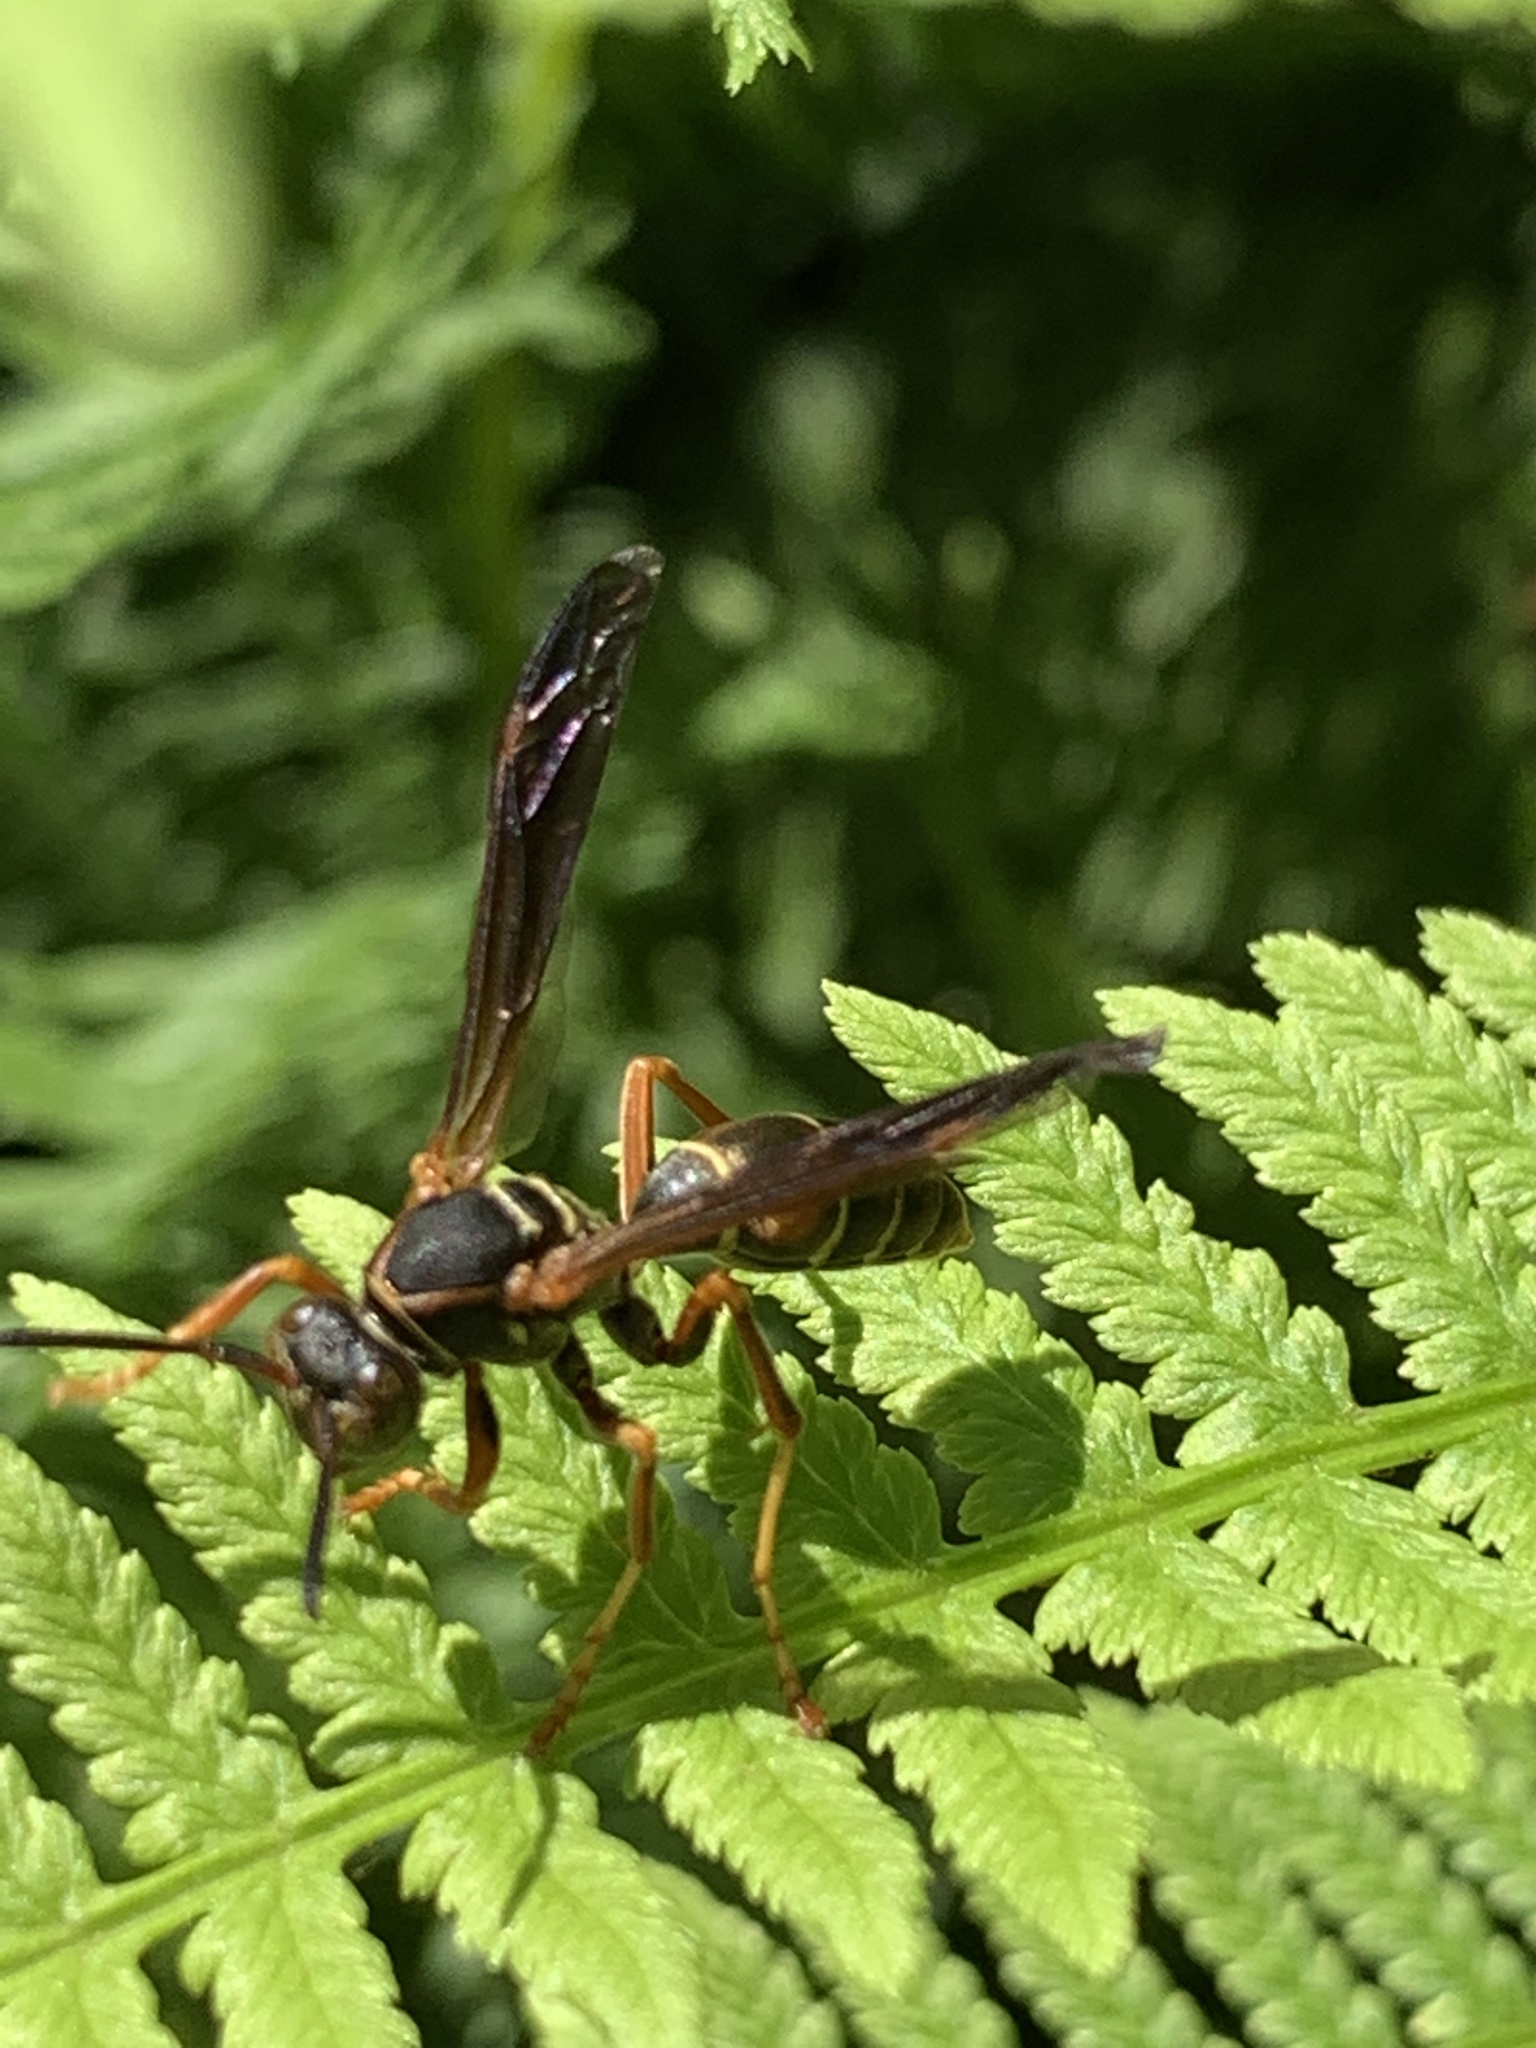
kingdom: Animalia
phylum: Arthropoda
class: Insecta
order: Hymenoptera
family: Eumenidae
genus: Polistes
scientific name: Polistes fuscatus
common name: Dark paper wasp
